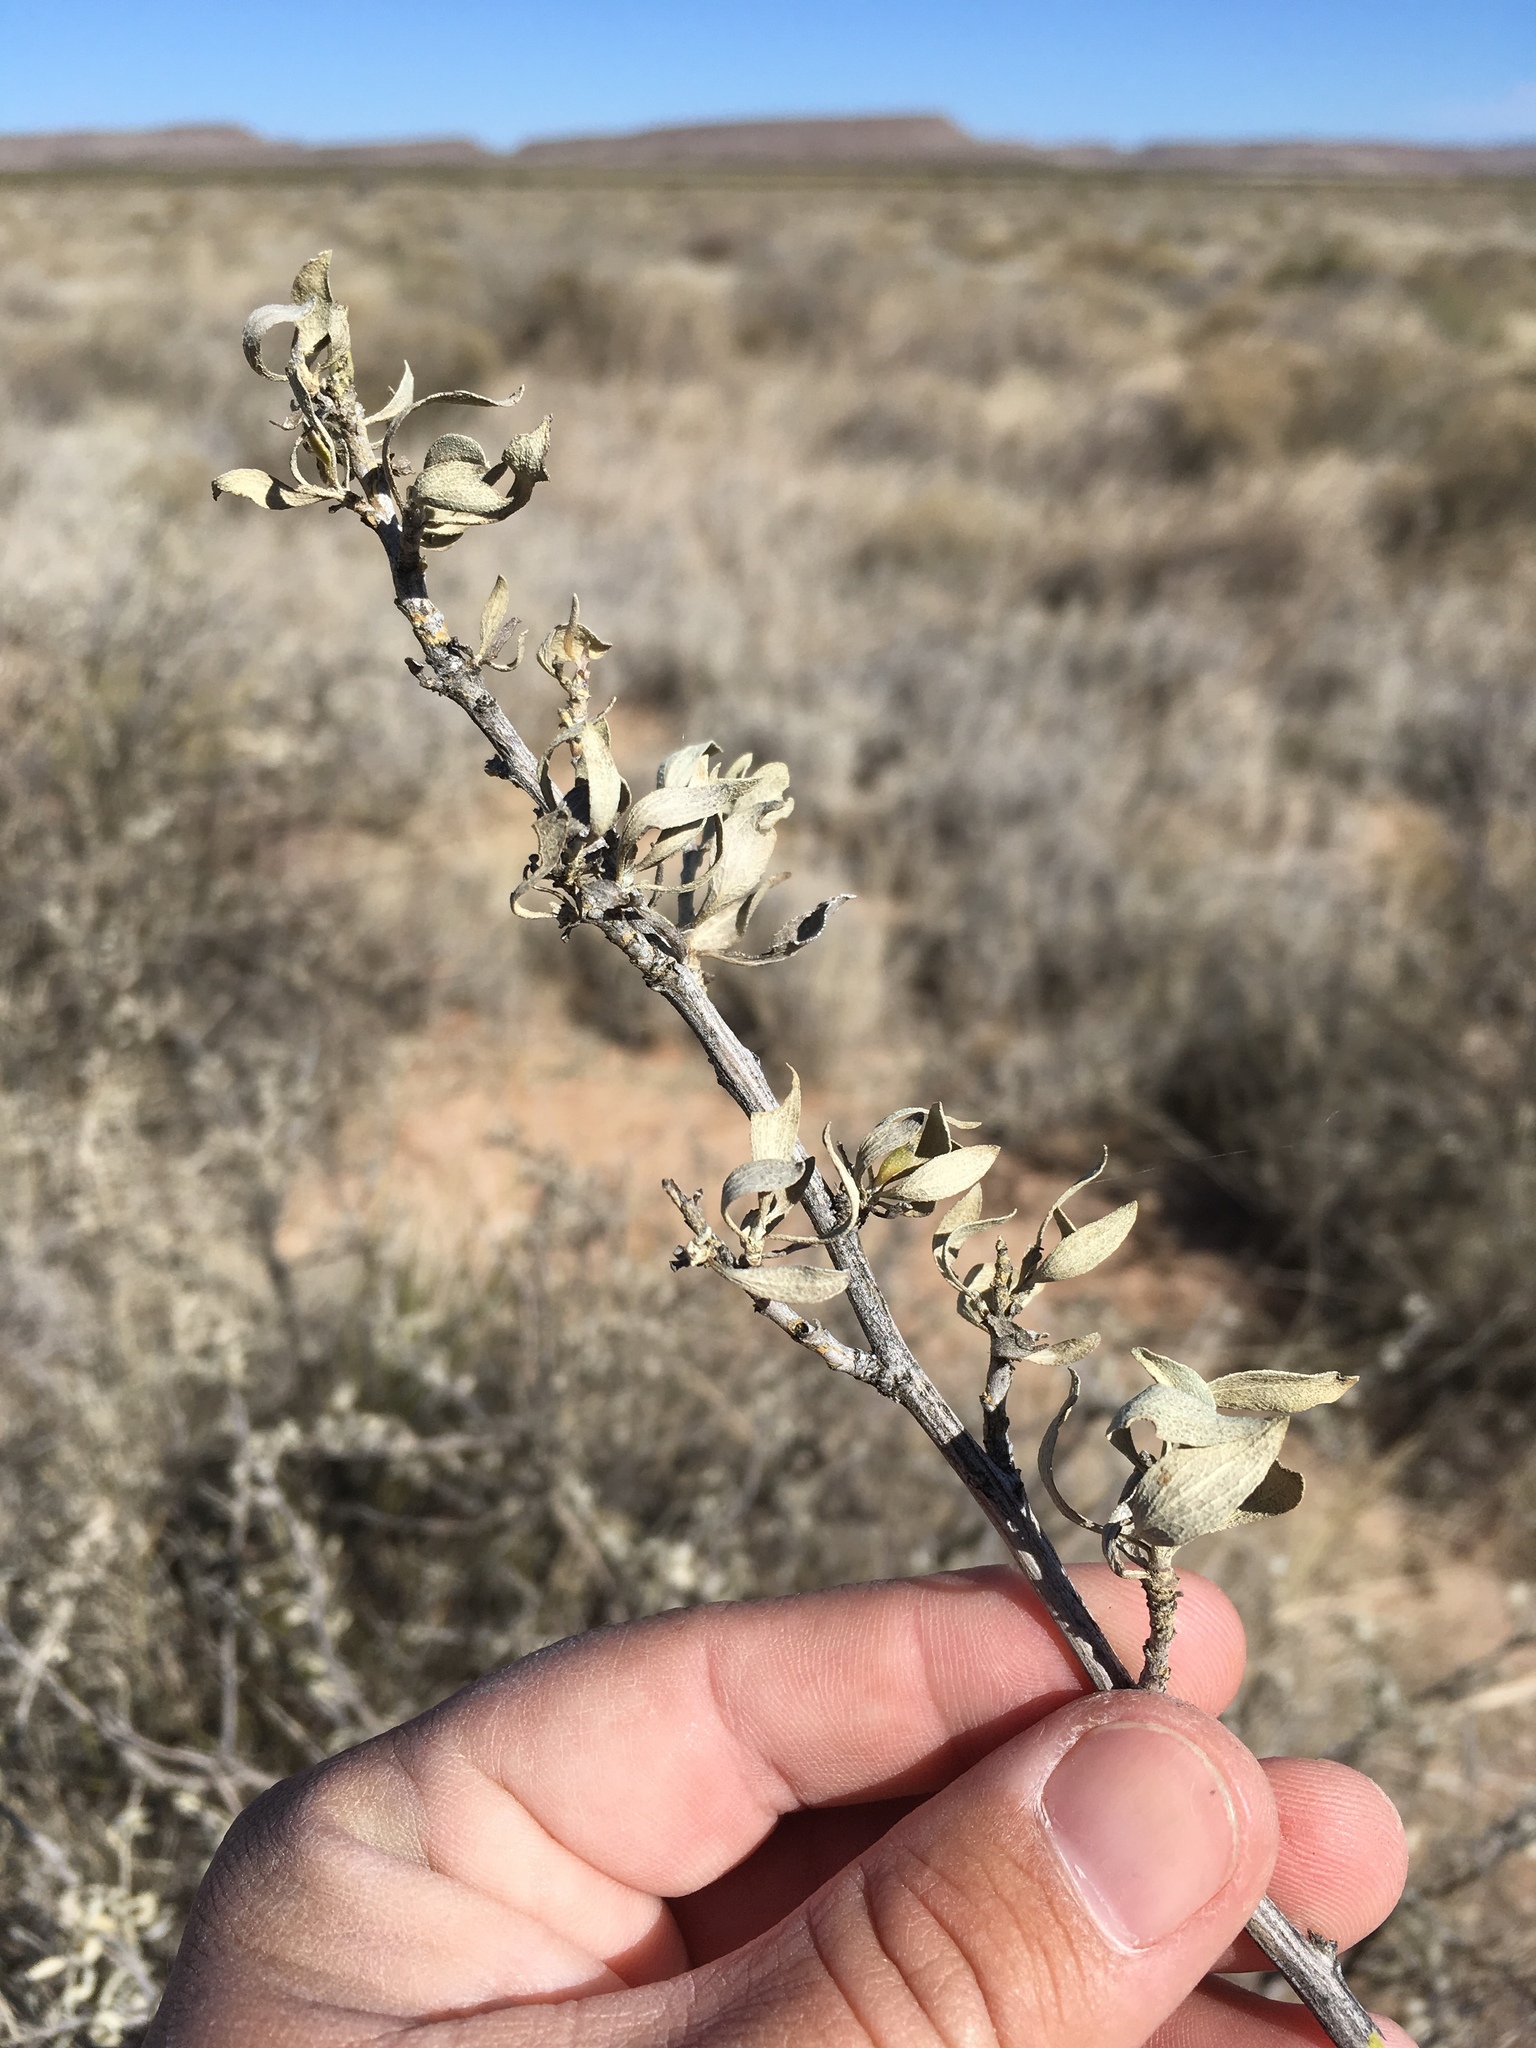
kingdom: Plantae
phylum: Tracheophyta
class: Magnoliopsida
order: Asterales
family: Asteraceae
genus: Flourensia
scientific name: Flourensia cernua
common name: Varnishbush
